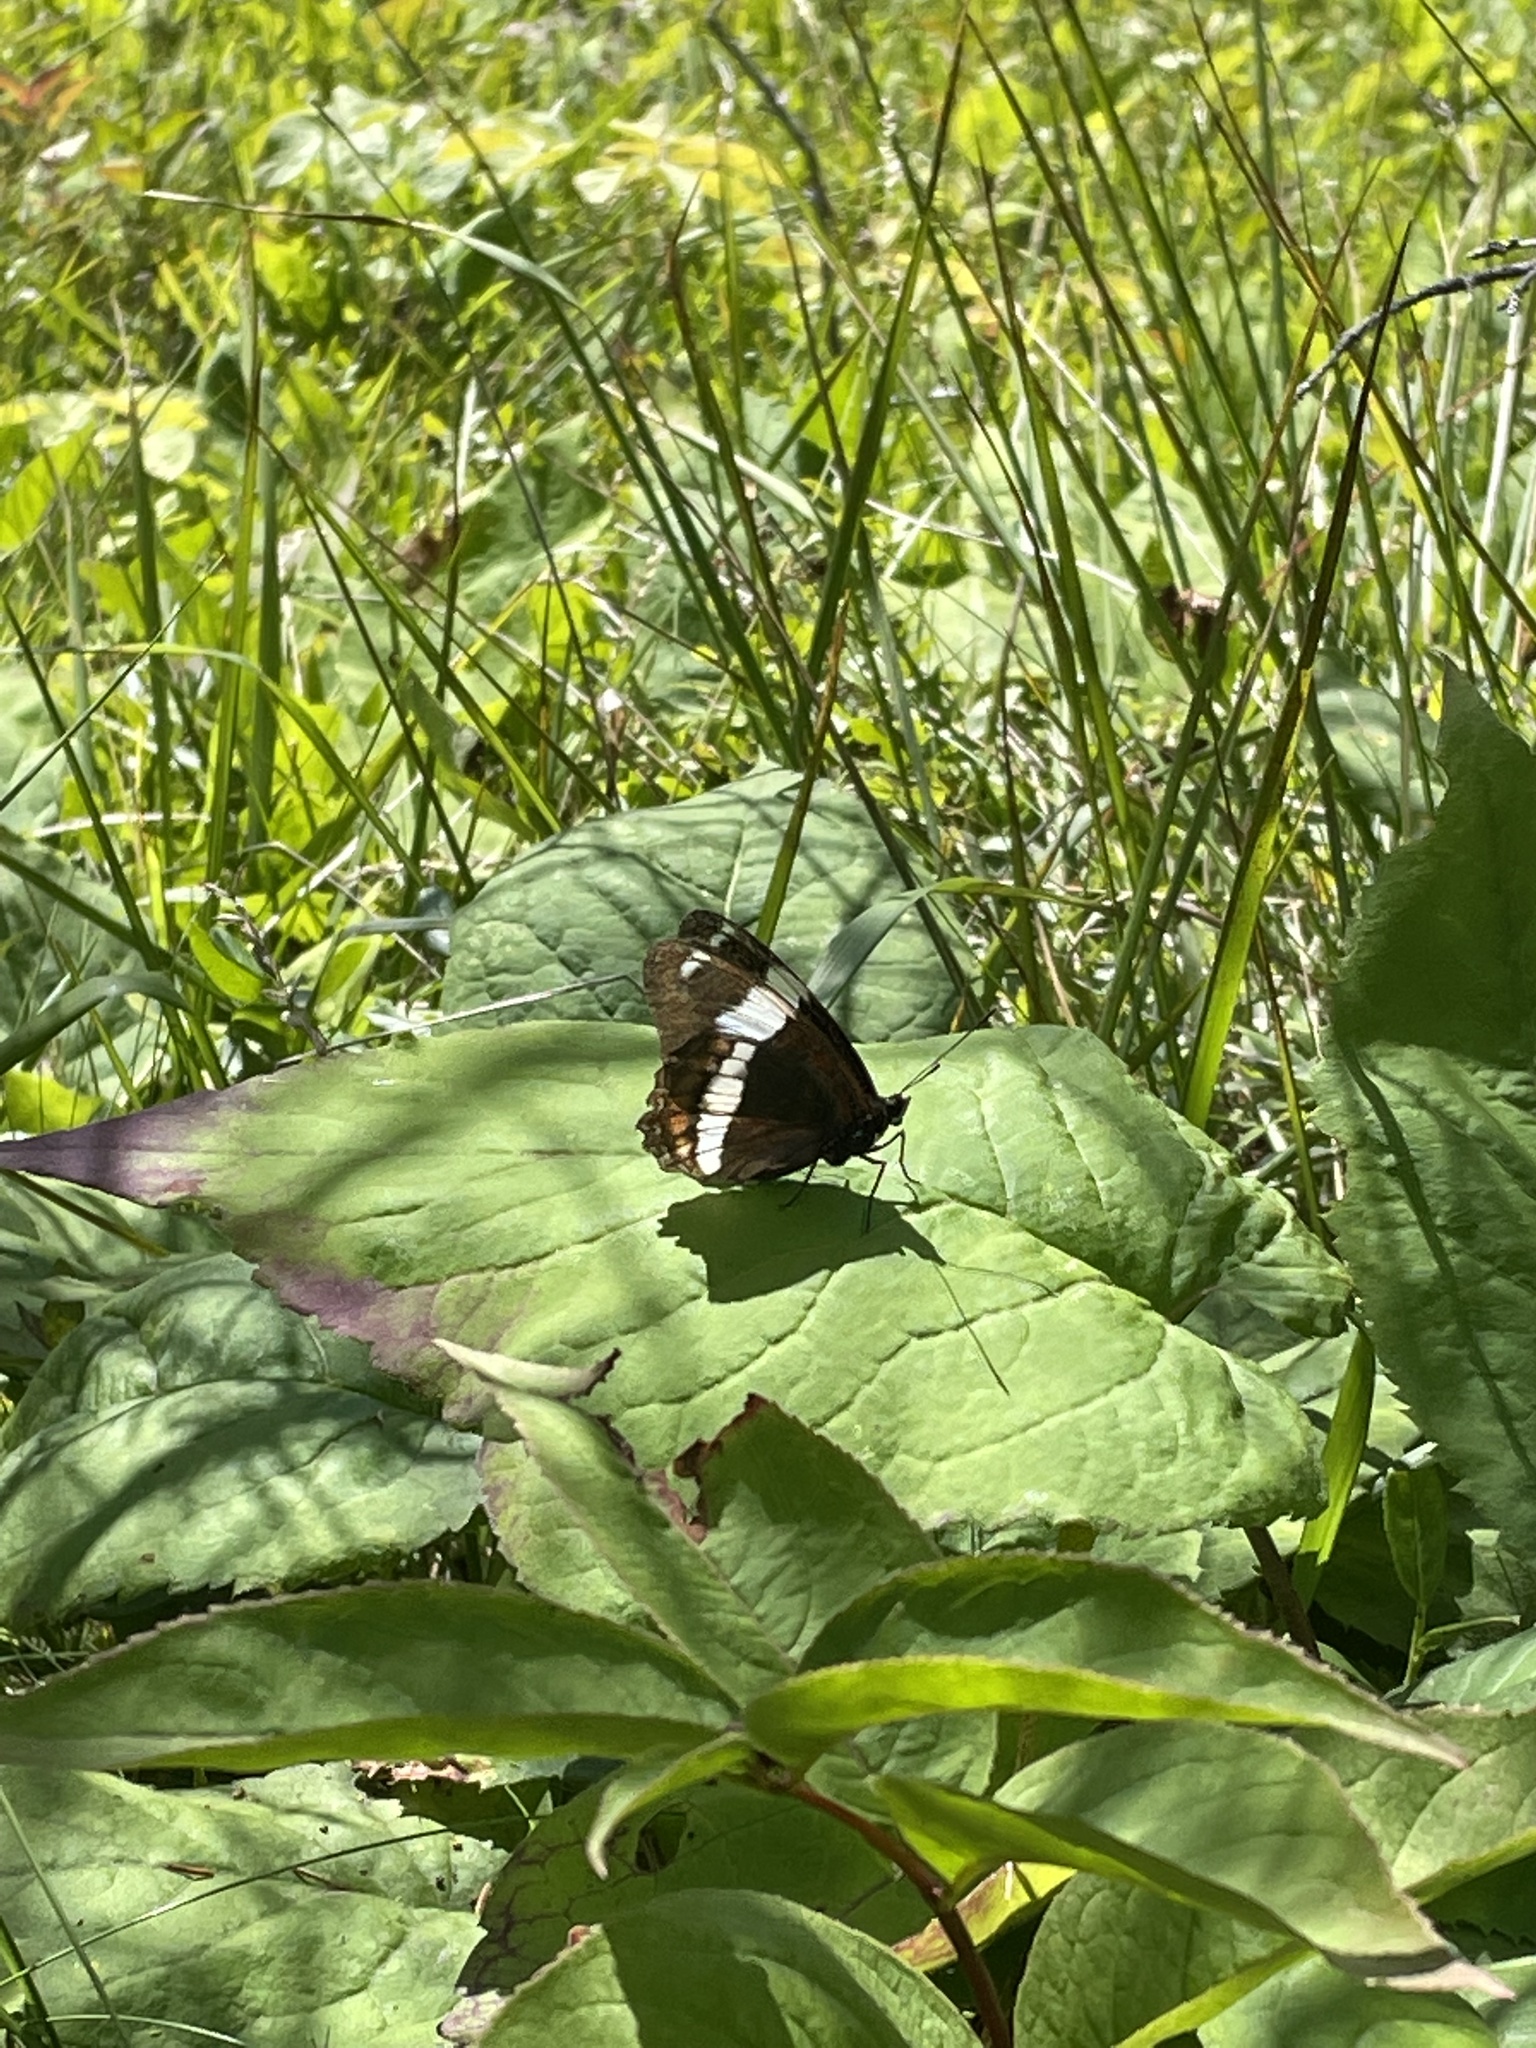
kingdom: Animalia
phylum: Arthropoda
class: Insecta
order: Lepidoptera
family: Nymphalidae
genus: Limenitis
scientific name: Limenitis arthemis
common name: Red-spotted admiral
